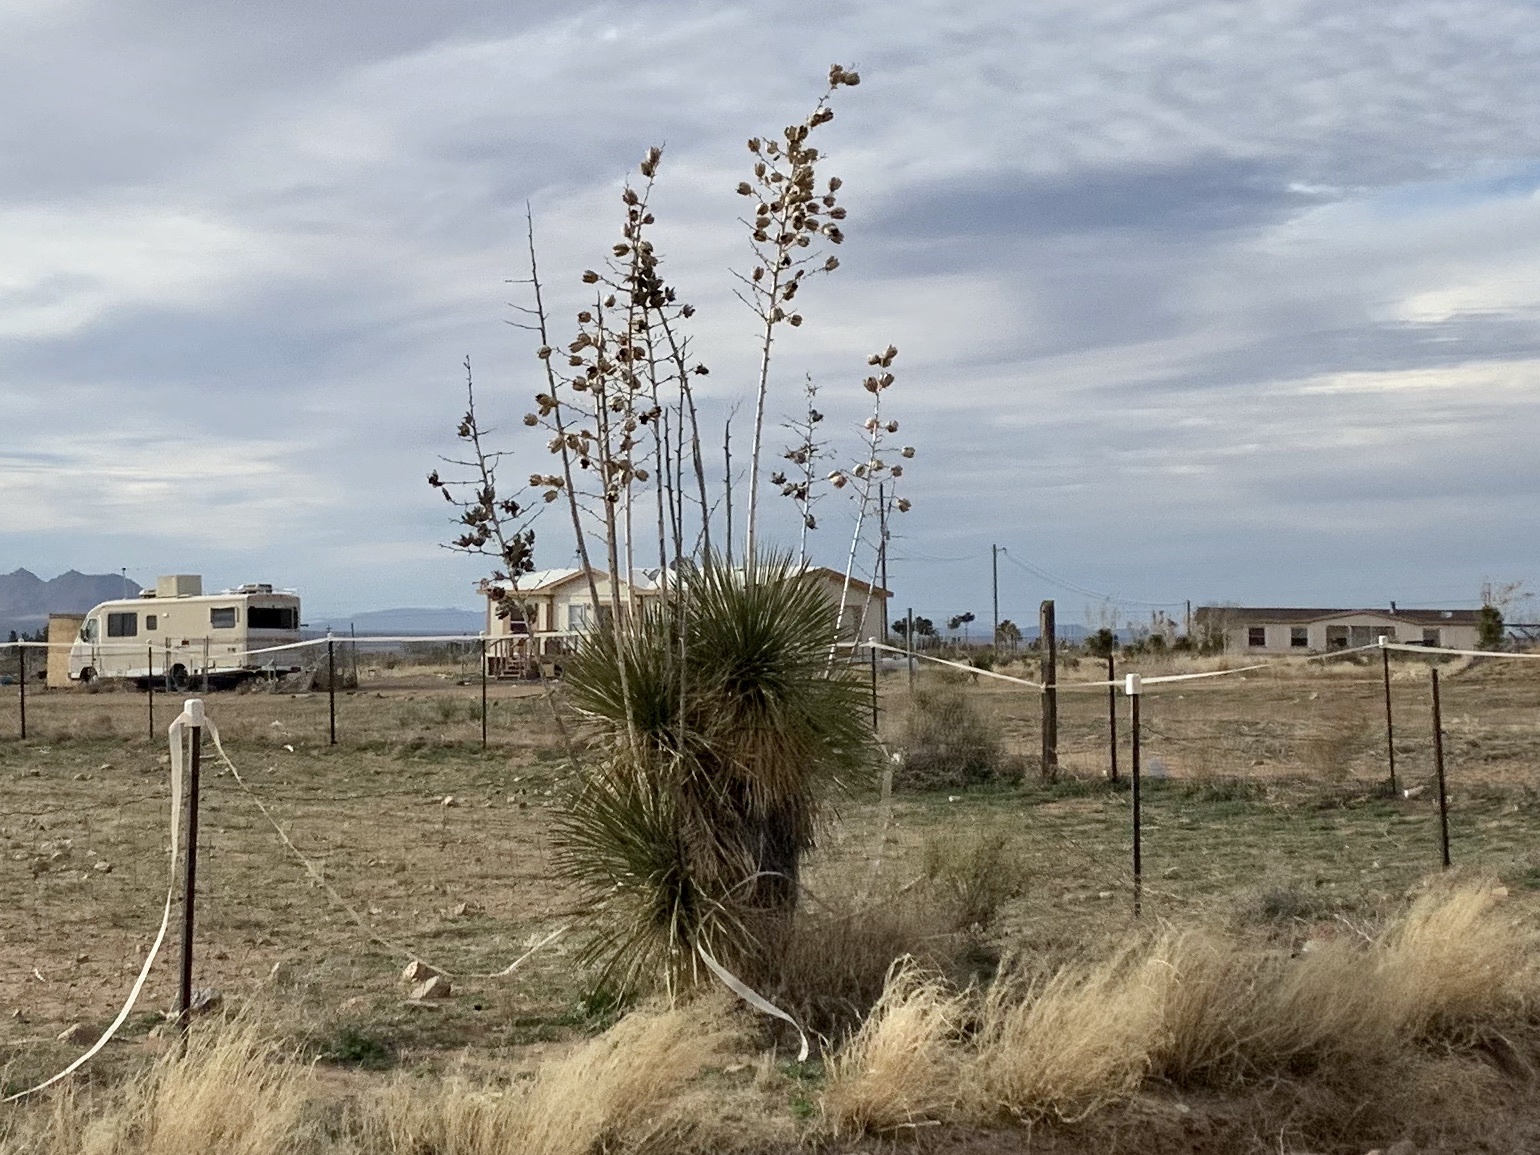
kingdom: Plantae
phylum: Tracheophyta
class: Liliopsida
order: Asparagales
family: Asparagaceae
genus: Yucca
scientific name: Yucca elata
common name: Palmella
